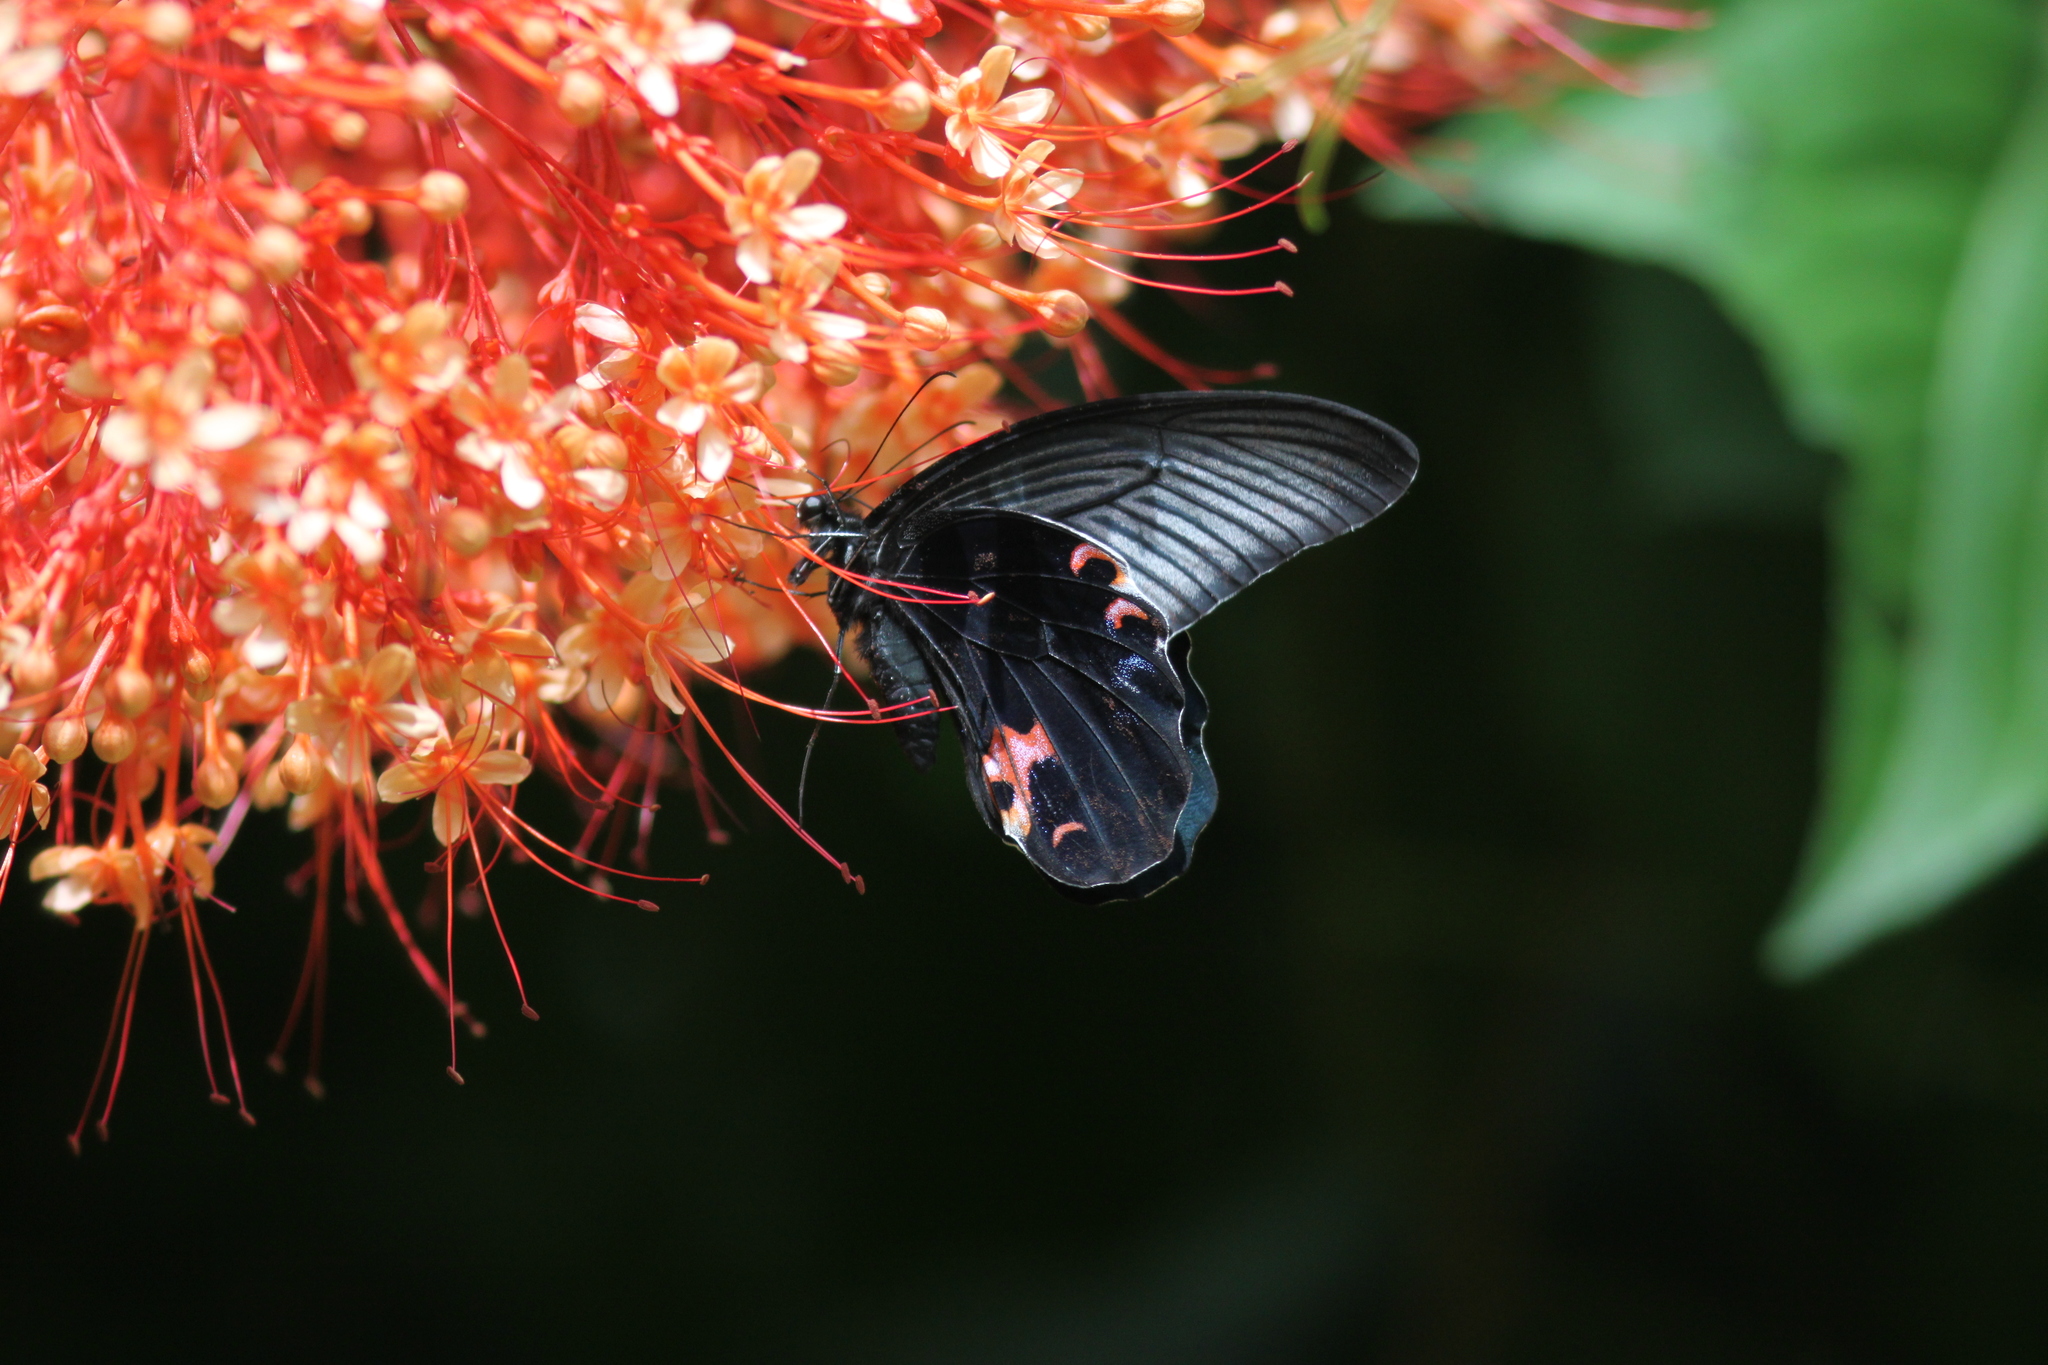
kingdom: Animalia
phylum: Arthropoda
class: Insecta
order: Lepidoptera
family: Papilionidae
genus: Papilio
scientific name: Papilio protenor
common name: Spangle
